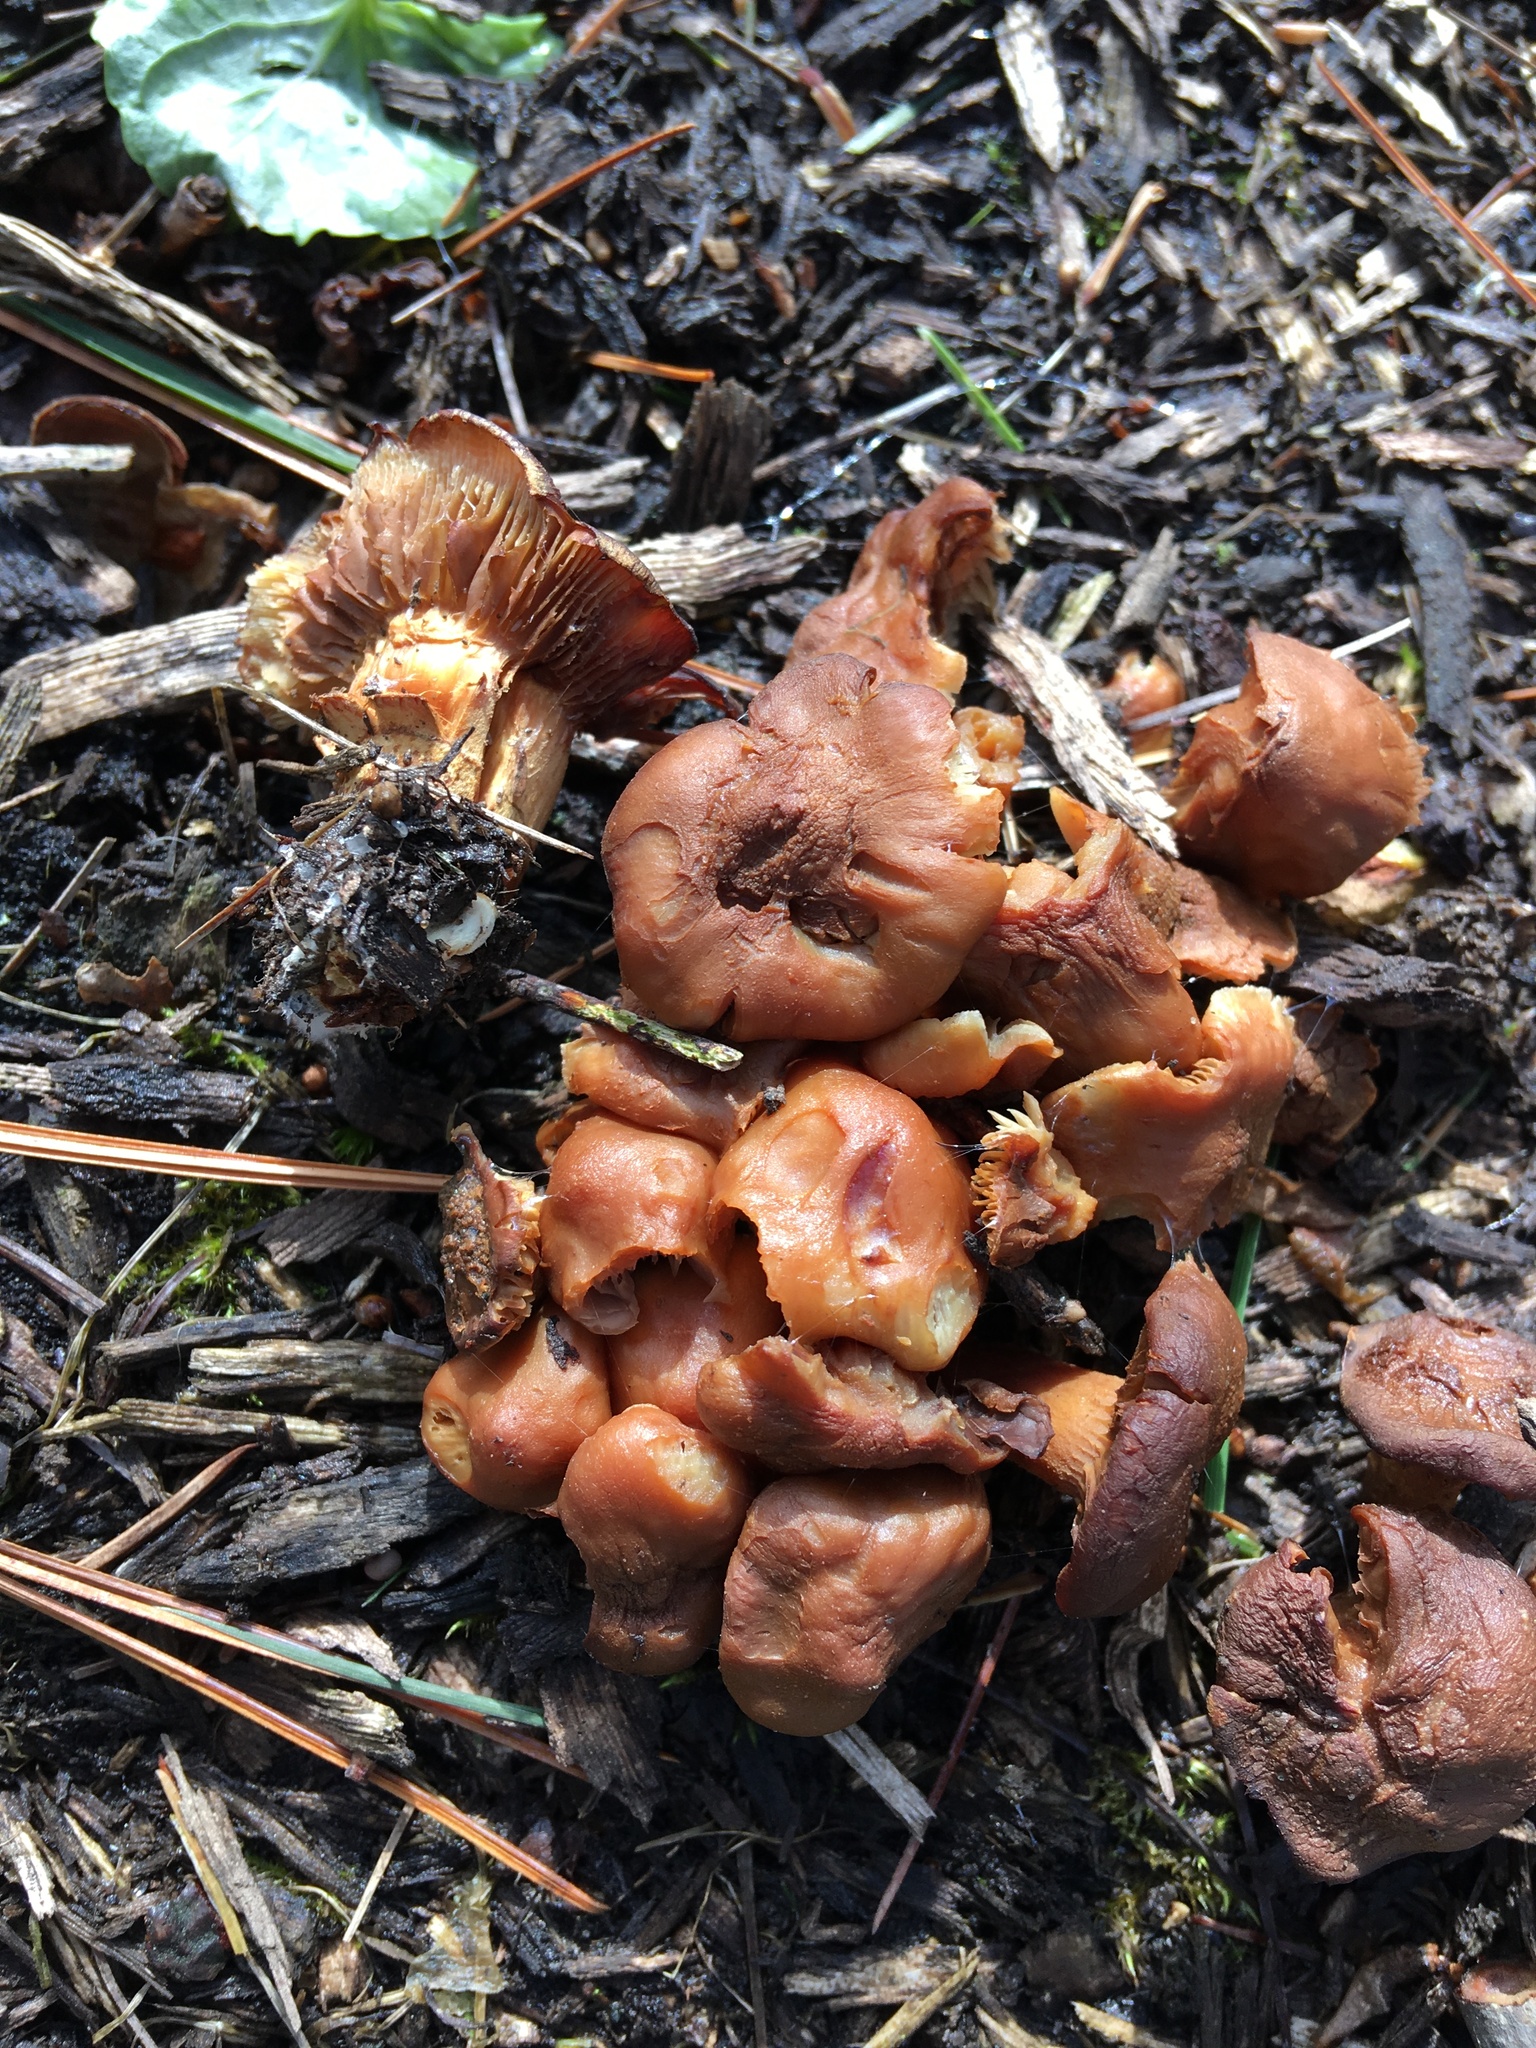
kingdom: Fungi
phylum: Basidiomycota
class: Agaricomycetes
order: Agaricales
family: Strophariaceae
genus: Hypholoma
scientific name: Hypholoma lateritium
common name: Brick caps
